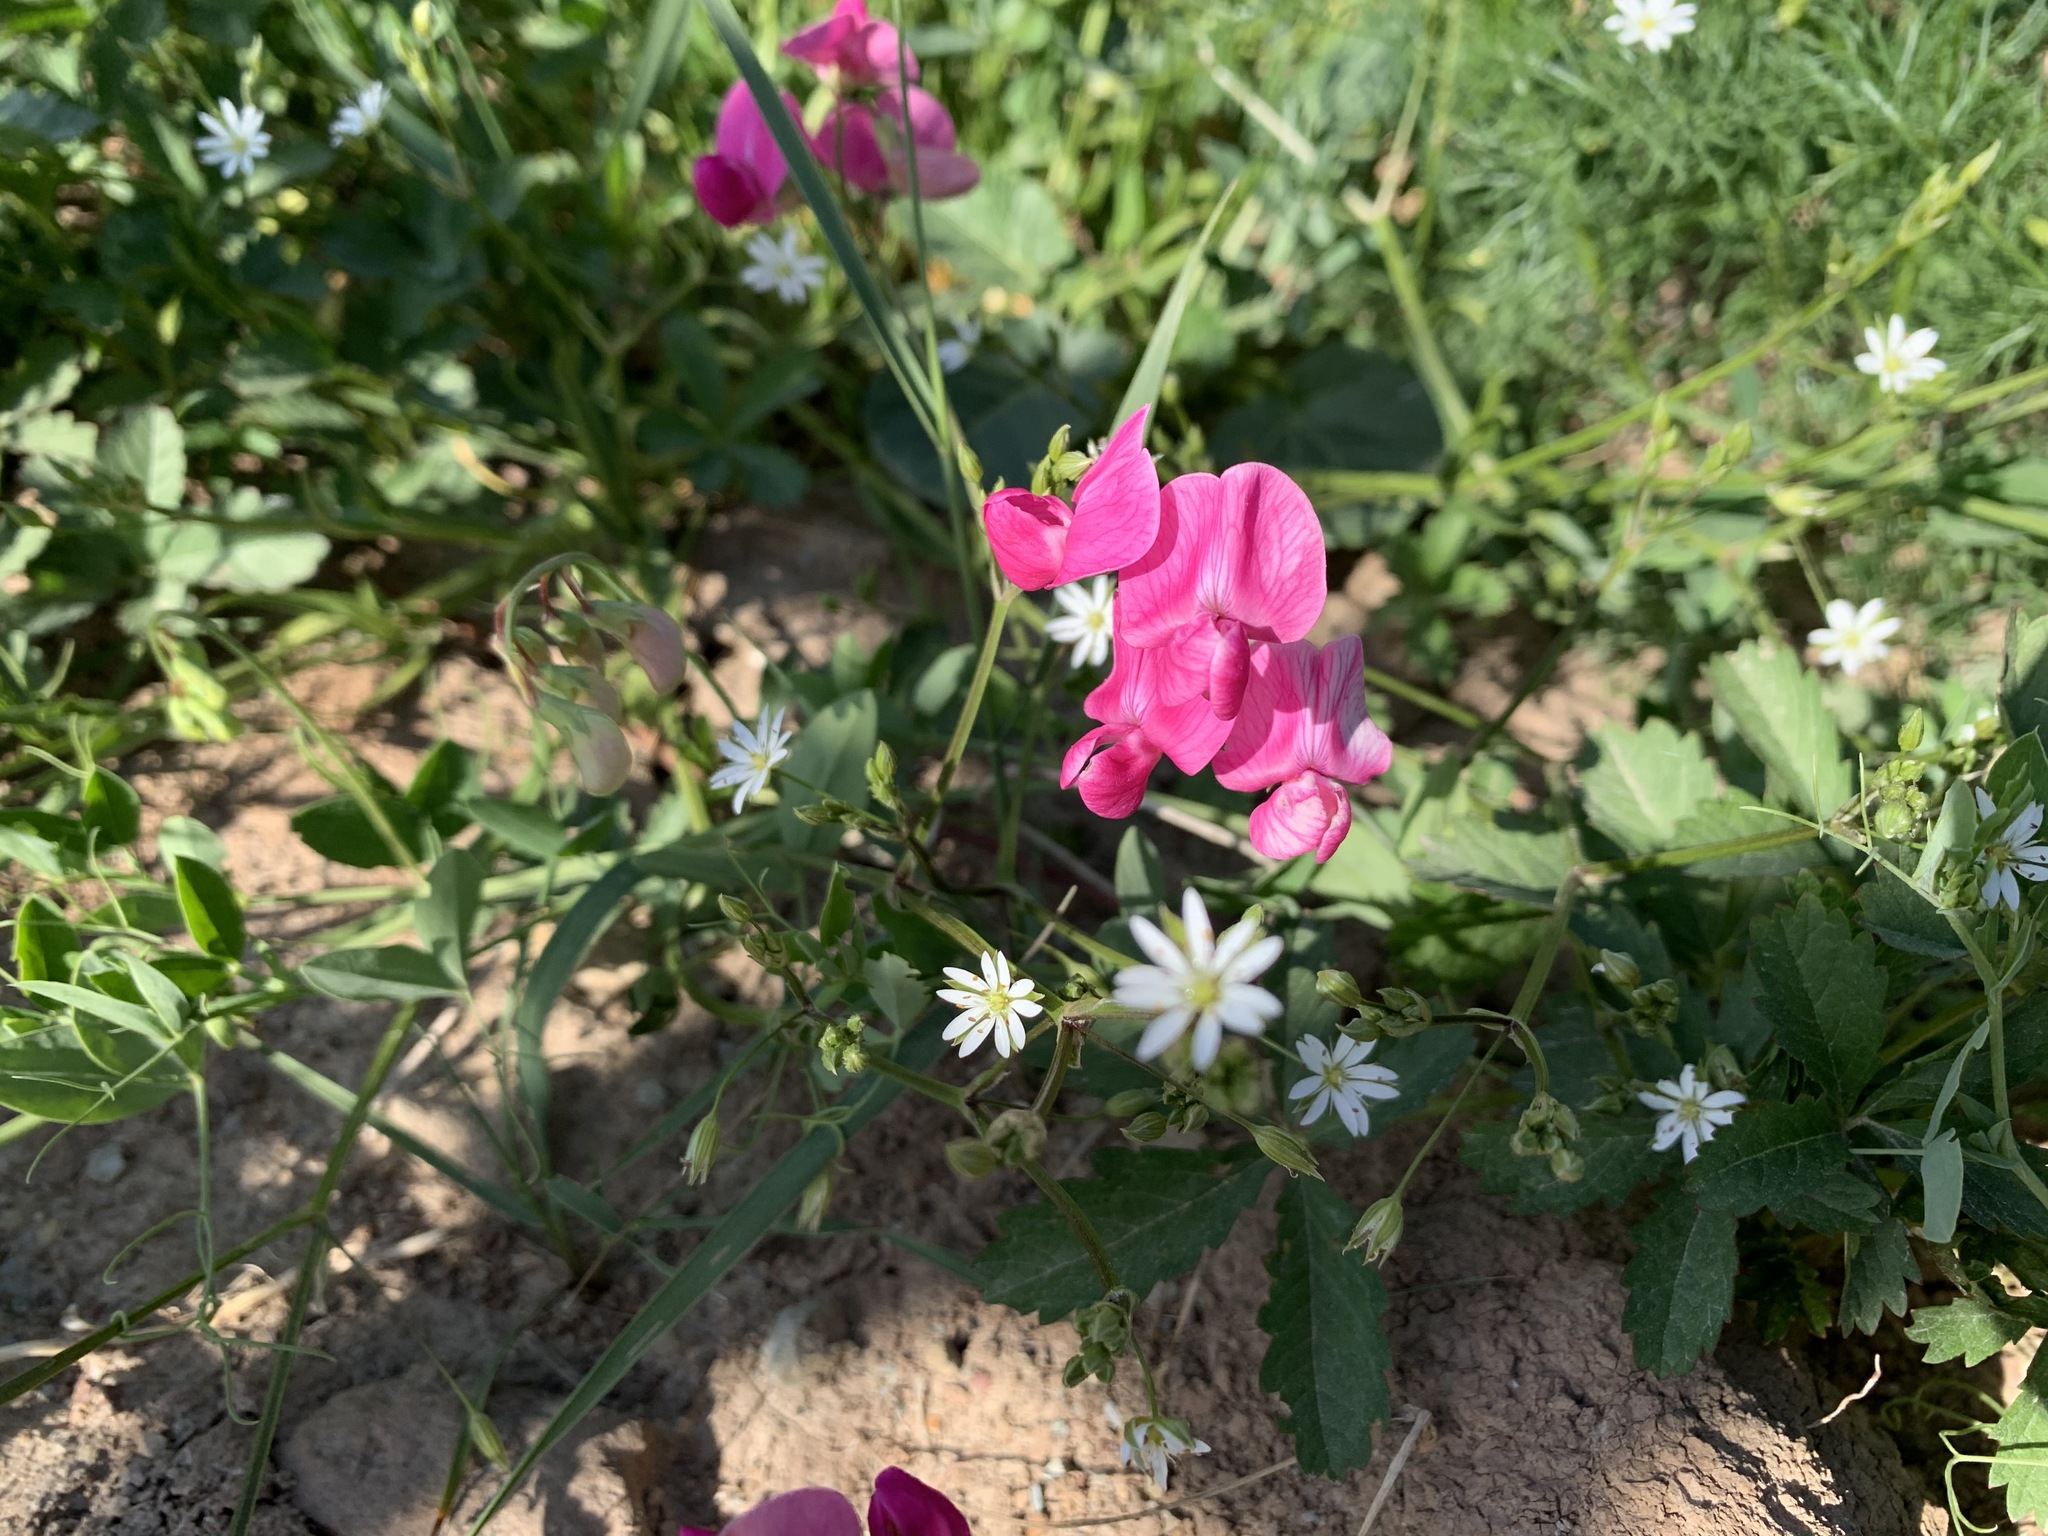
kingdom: Plantae
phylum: Tracheophyta
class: Magnoliopsida
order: Fabales
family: Fabaceae
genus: Lathyrus
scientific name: Lathyrus tuberosus
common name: Tuberous pea
